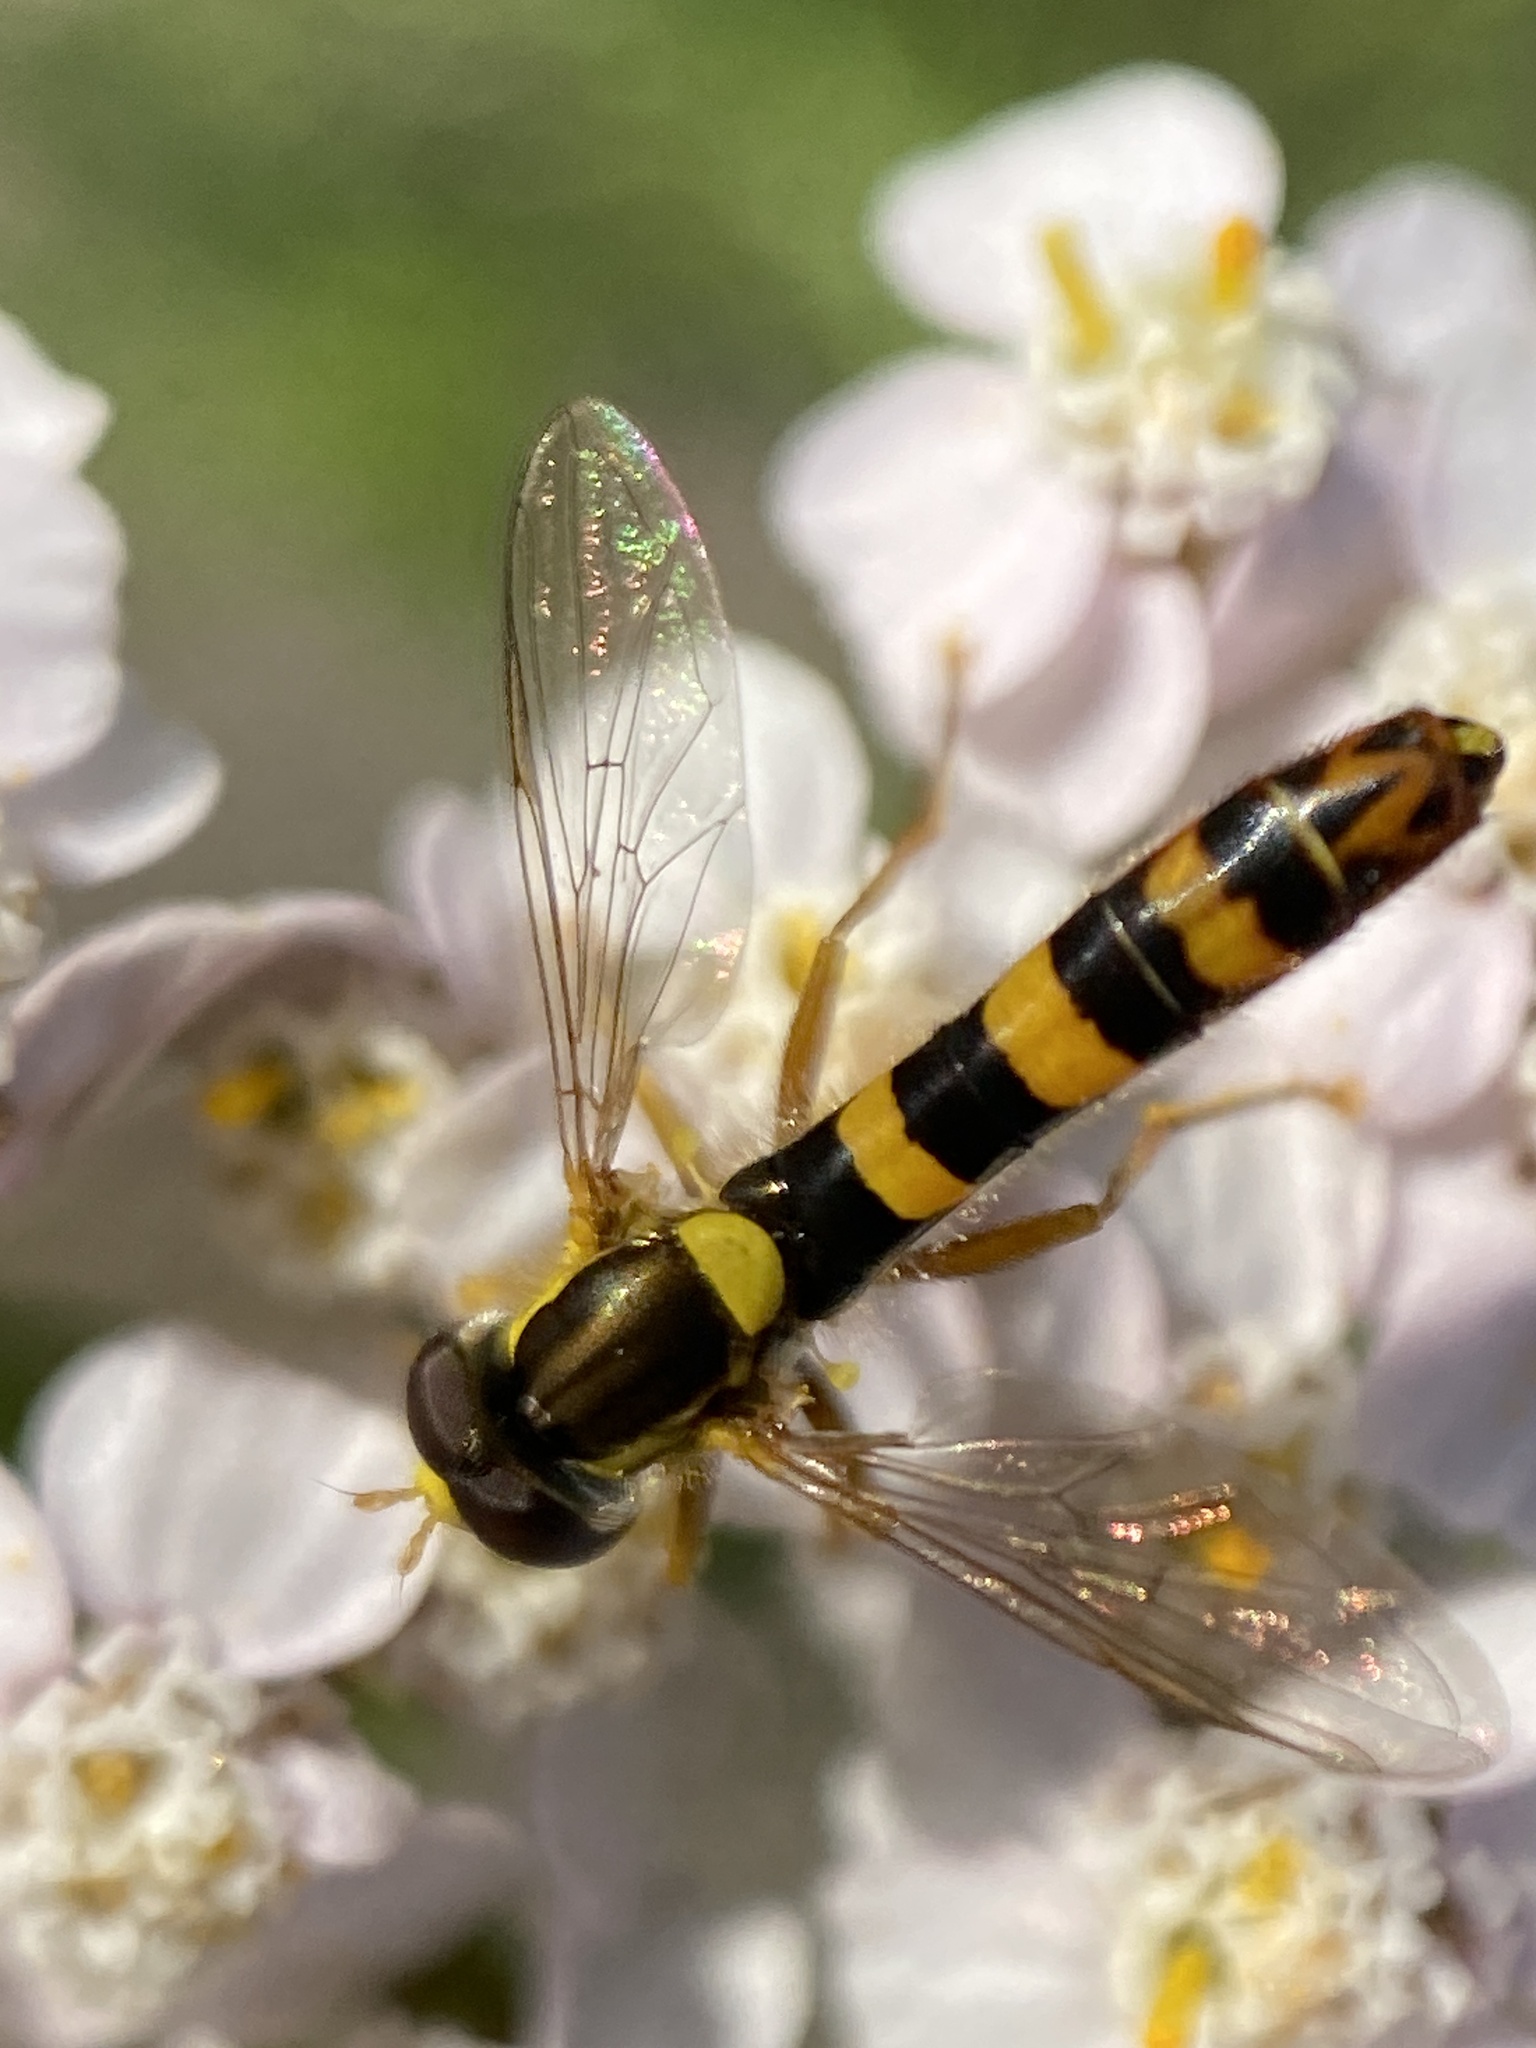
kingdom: Animalia
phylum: Arthropoda
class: Insecta
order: Diptera
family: Syrphidae
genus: Sphaerophoria
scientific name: Sphaerophoria scripta
